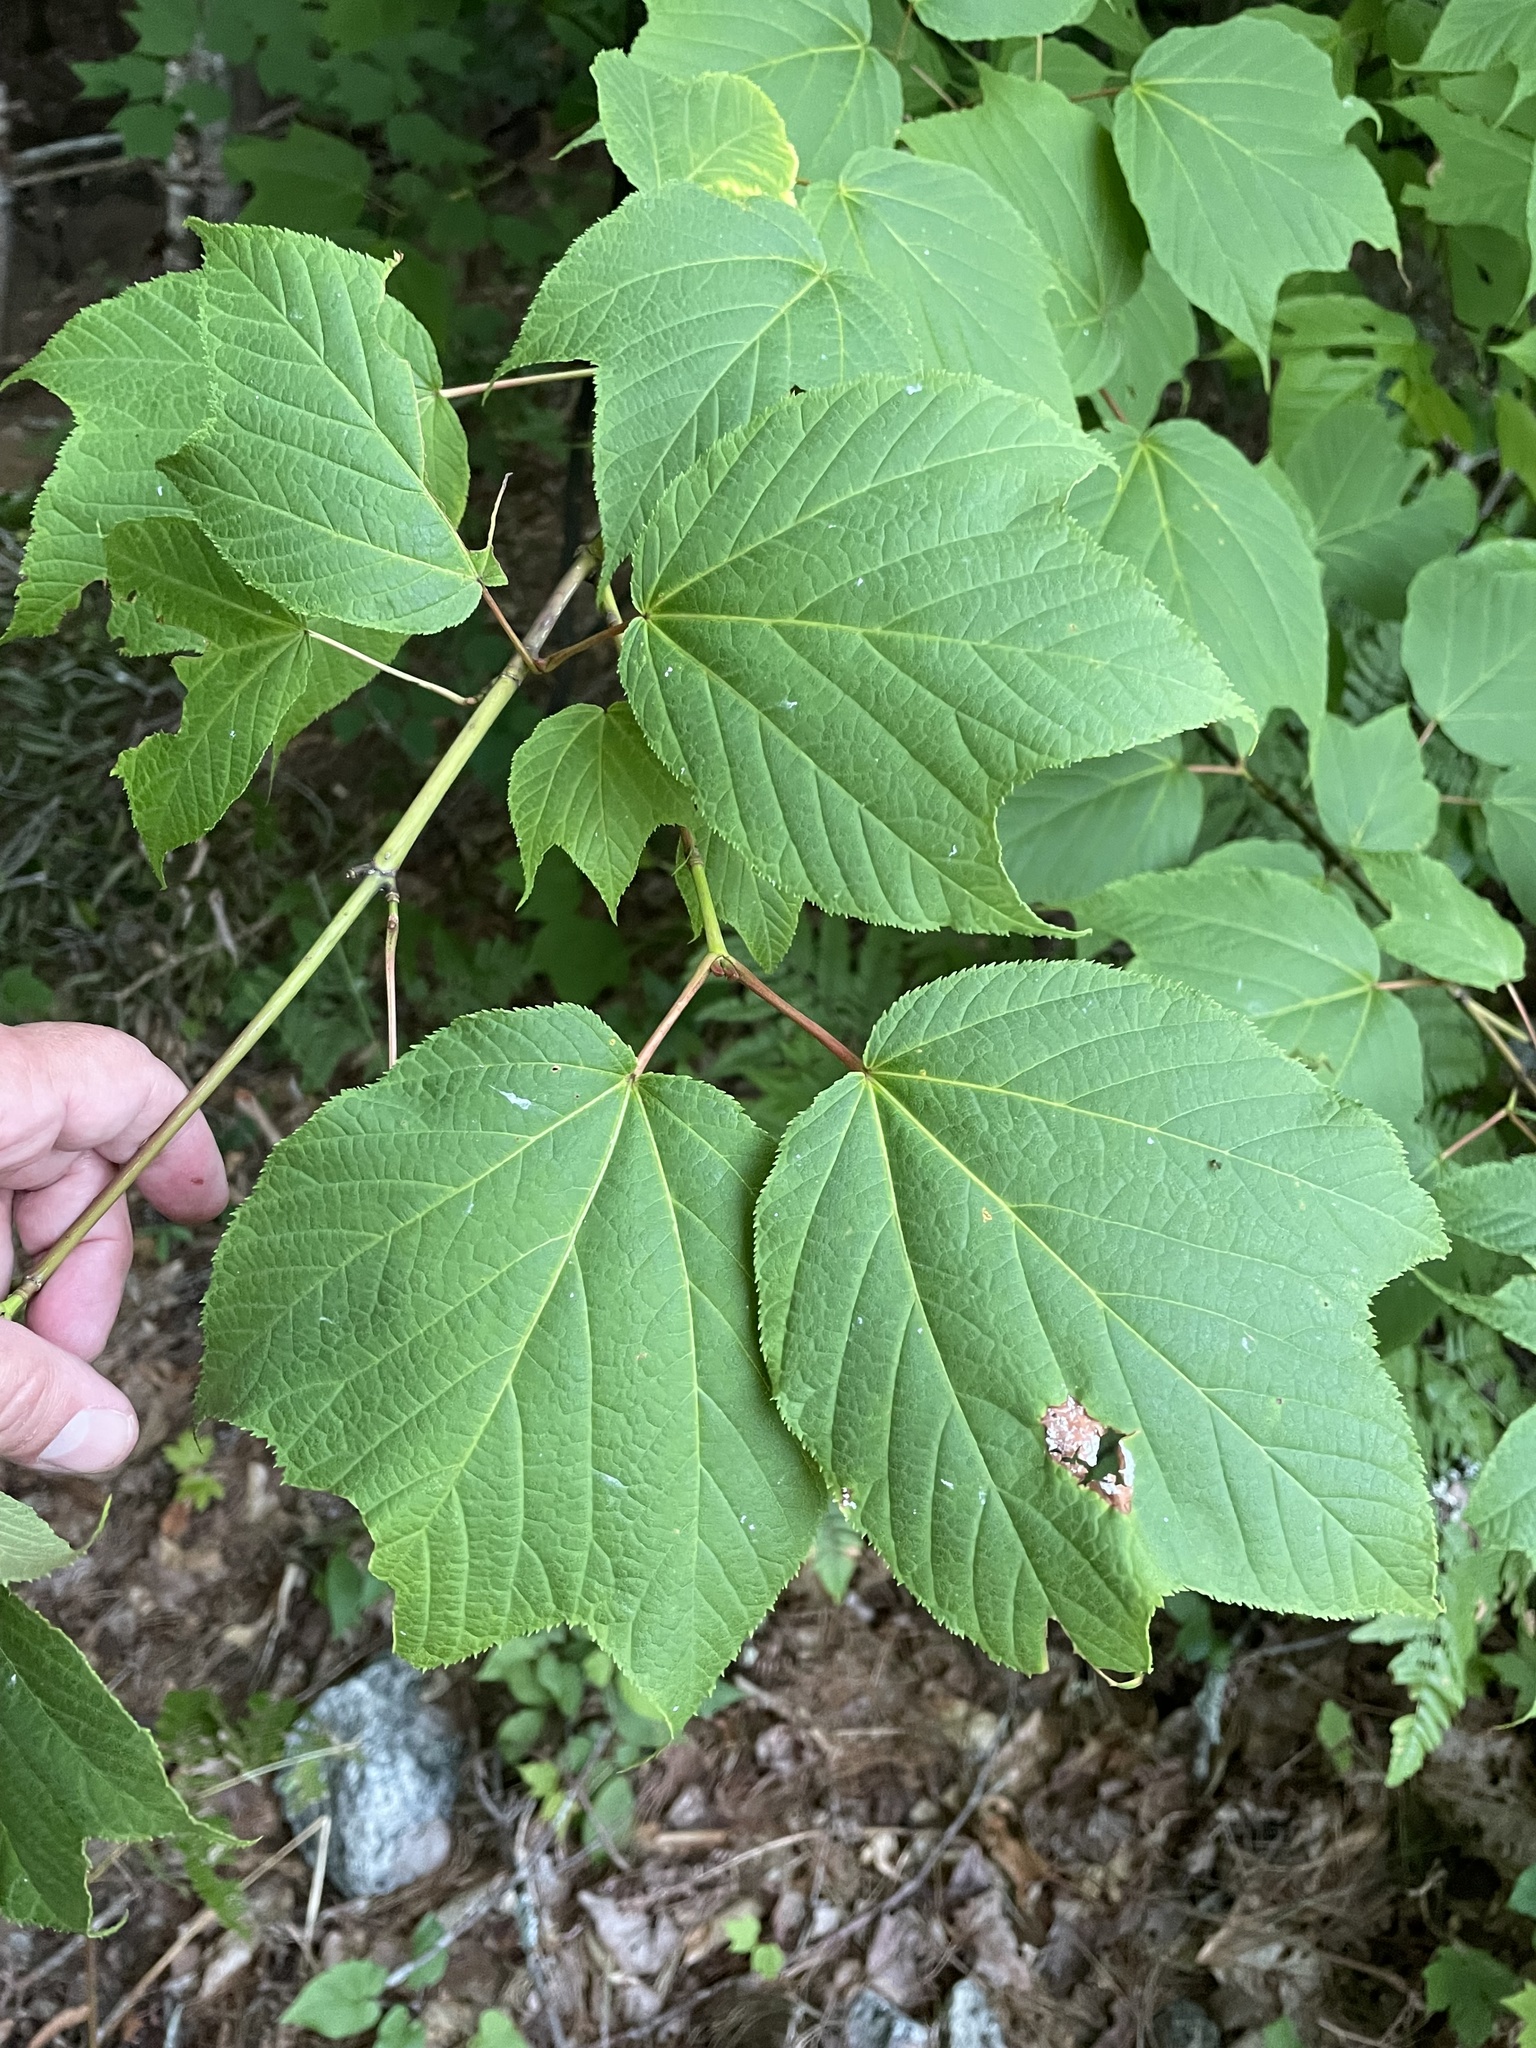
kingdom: Plantae
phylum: Tracheophyta
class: Magnoliopsida
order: Sapindales
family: Sapindaceae
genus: Acer
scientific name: Acer pensylvanicum
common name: Moosewood
